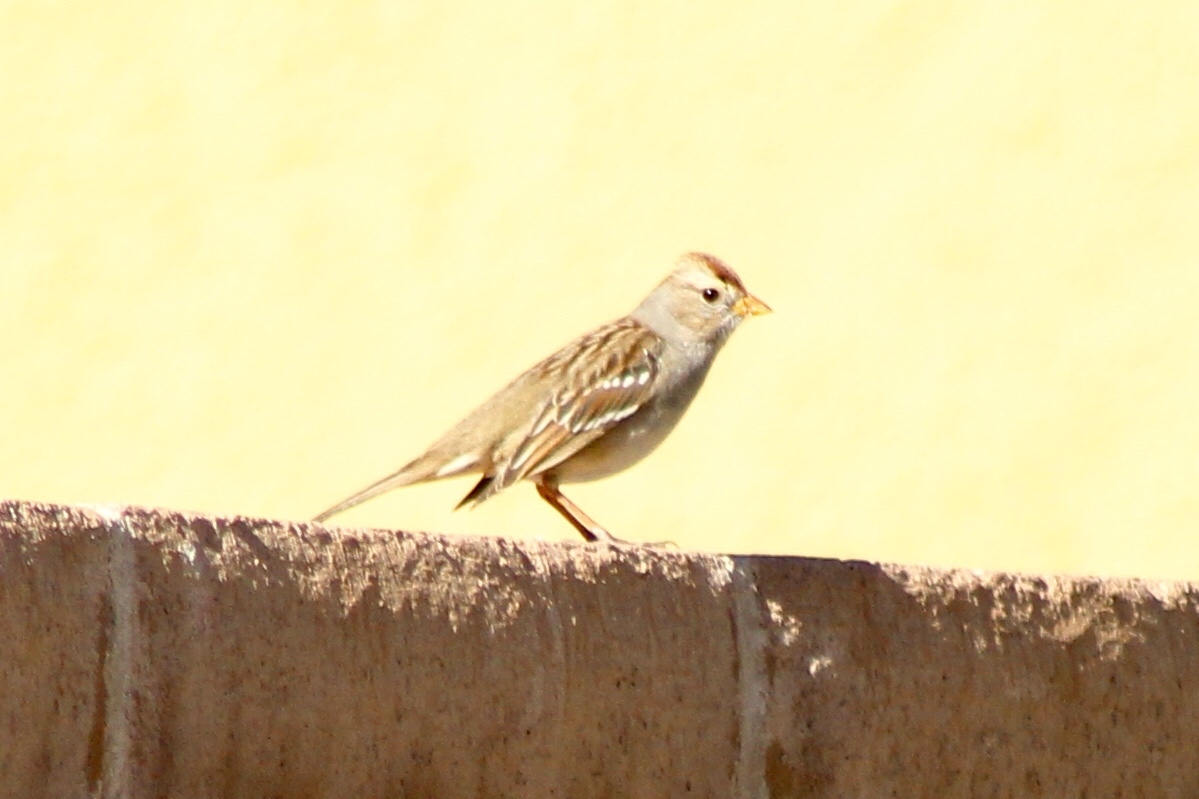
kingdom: Animalia
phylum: Chordata
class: Aves
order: Passeriformes
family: Passerellidae
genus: Zonotrichia
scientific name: Zonotrichia leucophrys
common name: White-crowned sparrow
